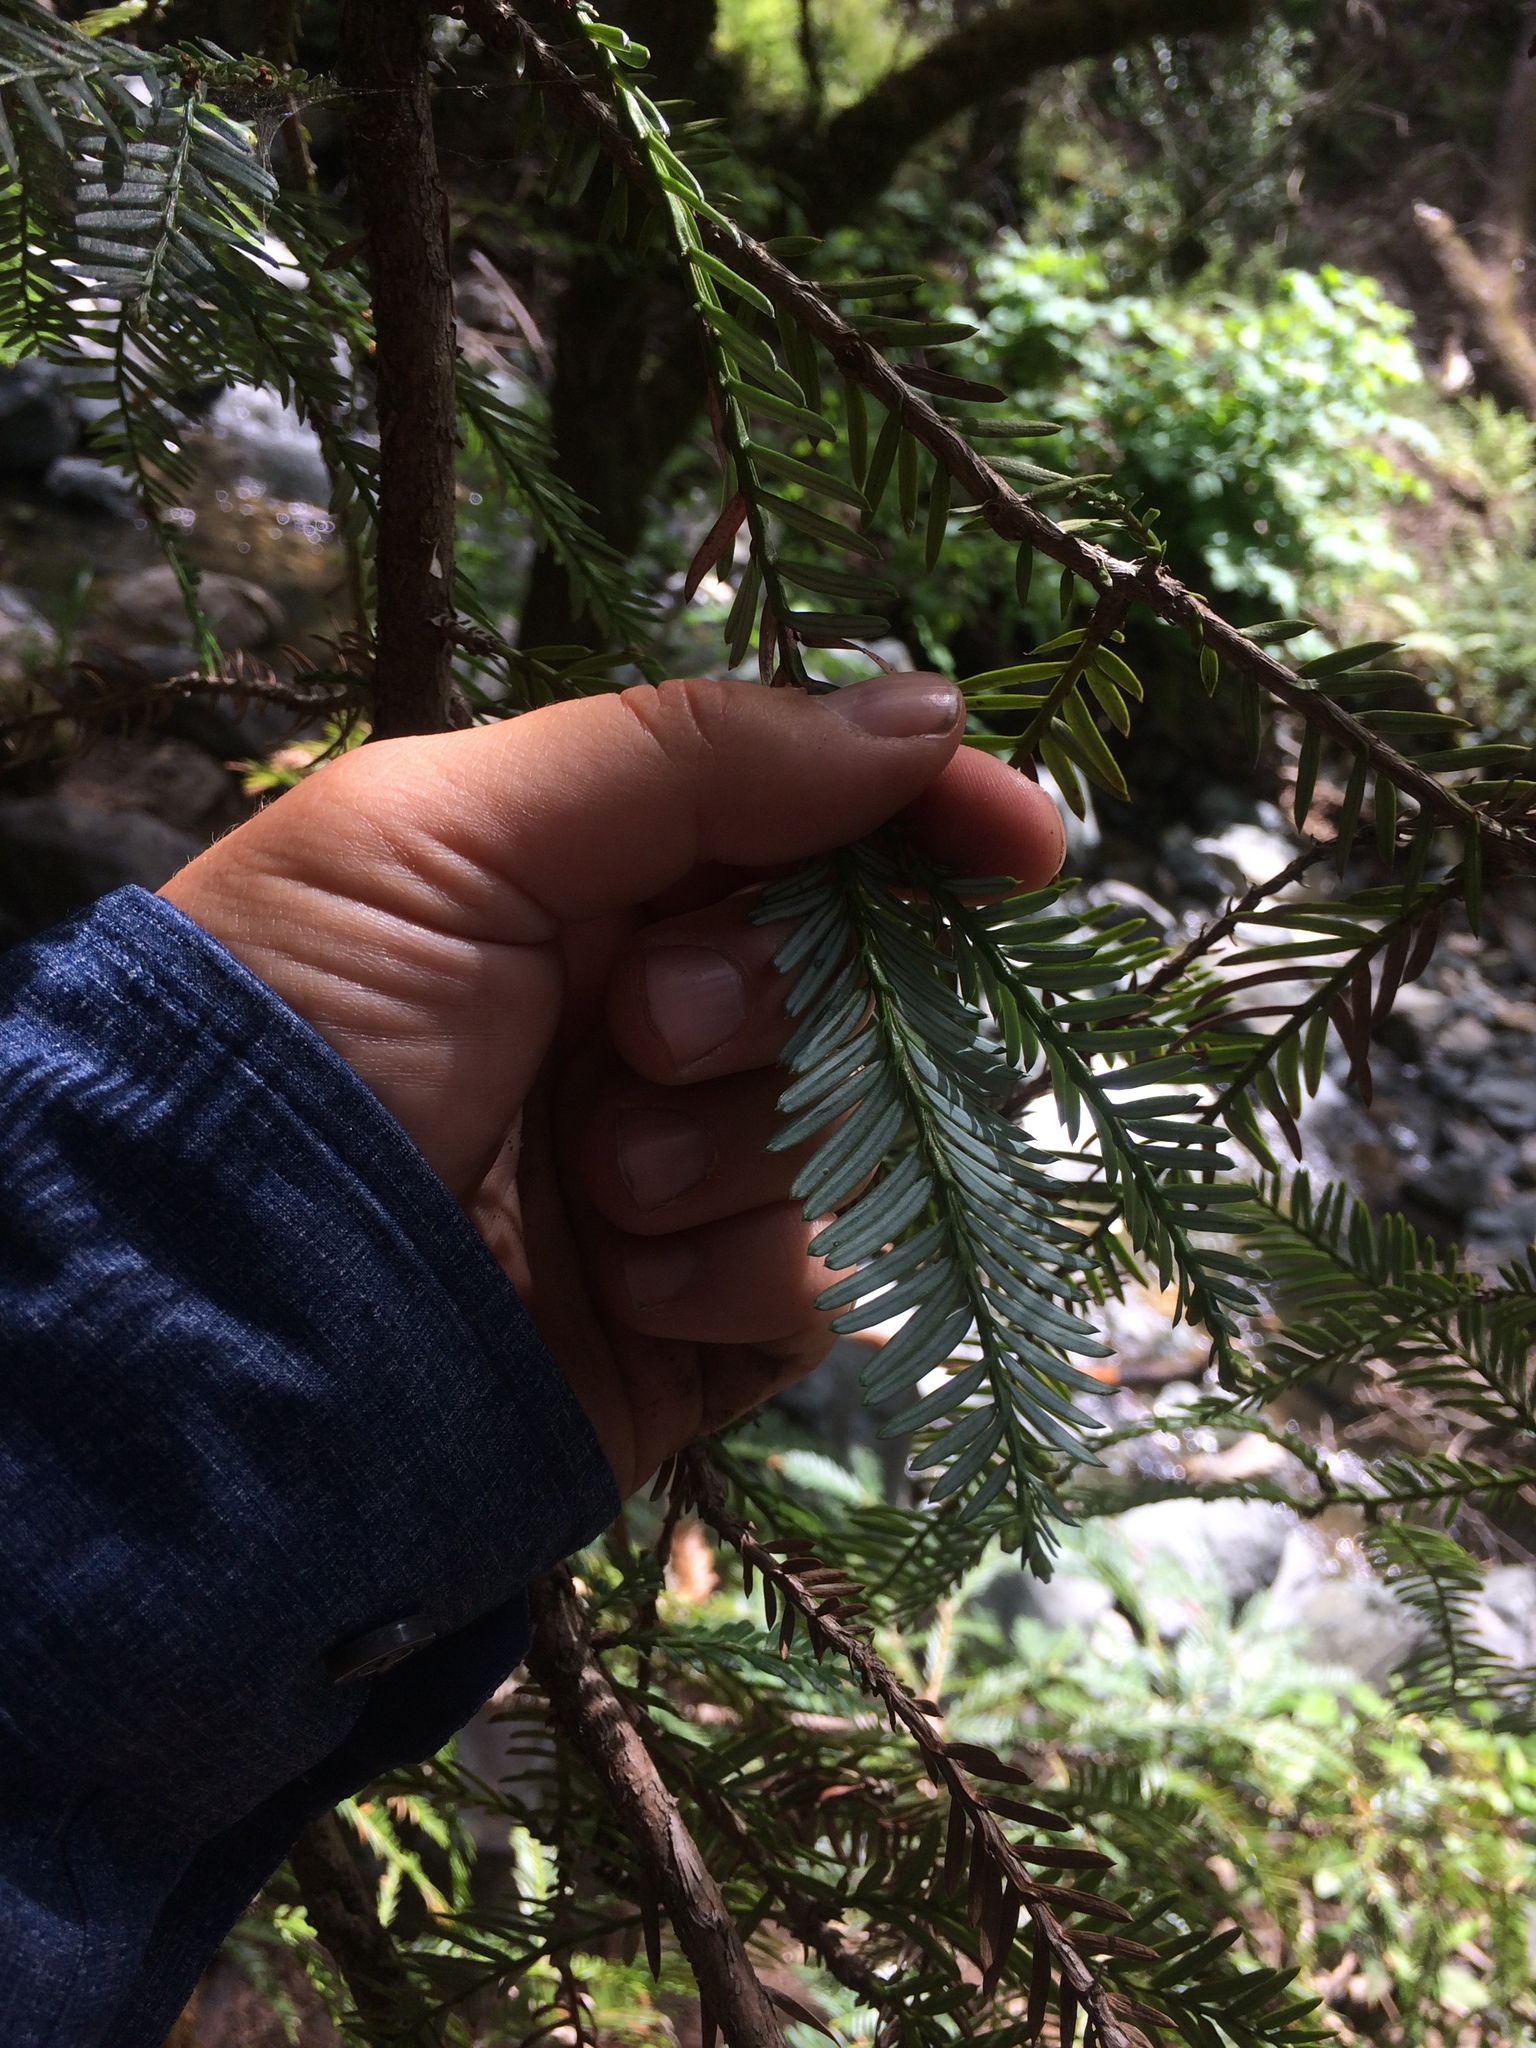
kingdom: Plantae
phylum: Tracheophyta
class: Pinopsida
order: Pinales
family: Cupressaceae
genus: Sequoia
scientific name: Sequoia sempervirens
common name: Coast redwood
